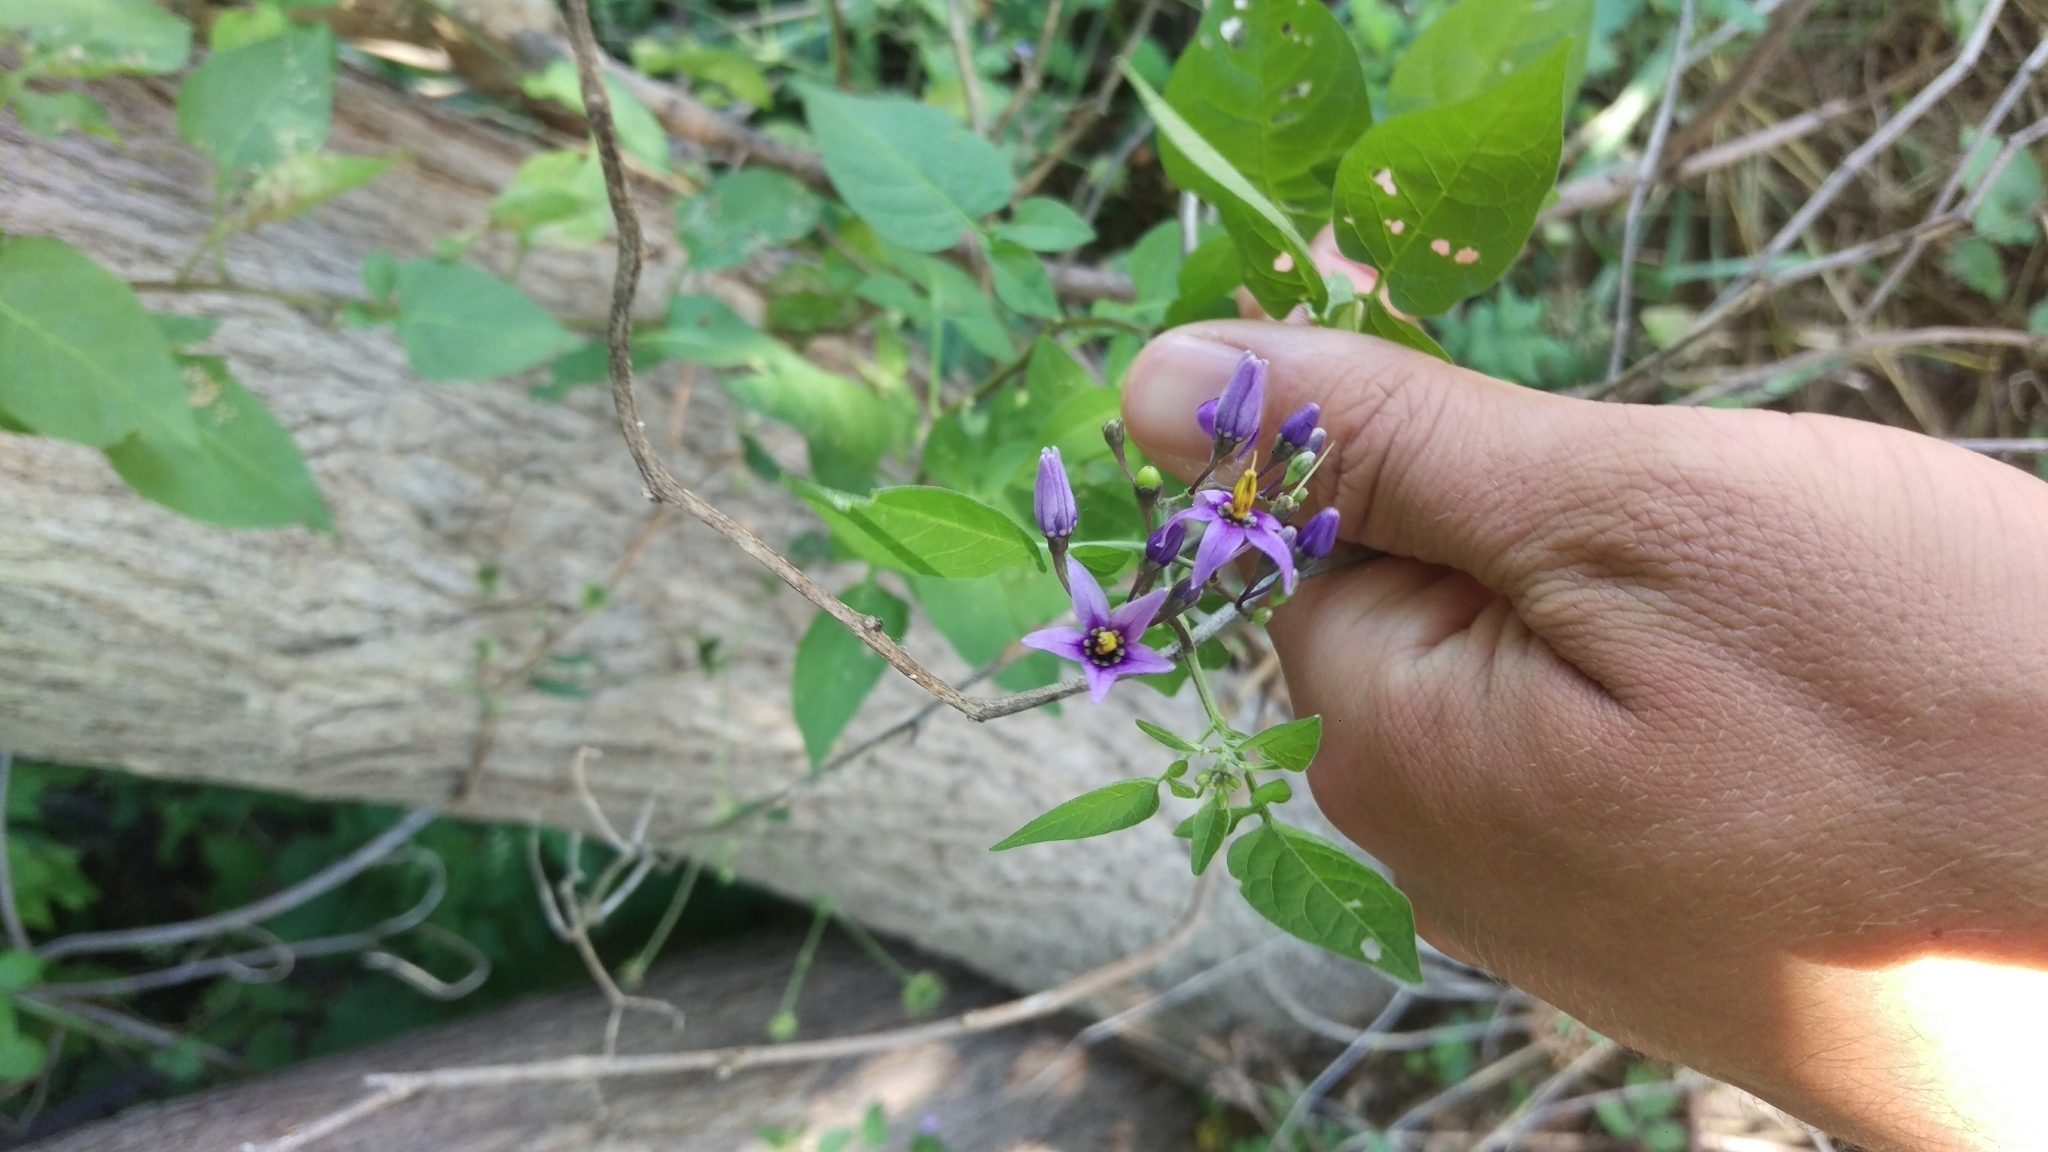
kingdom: Plantae
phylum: Tracheophyta
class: Magnoliopsida
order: Solanales
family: Solanaceae
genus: Solanum
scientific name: Solanum dulcamara
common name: Climbing nightshade
